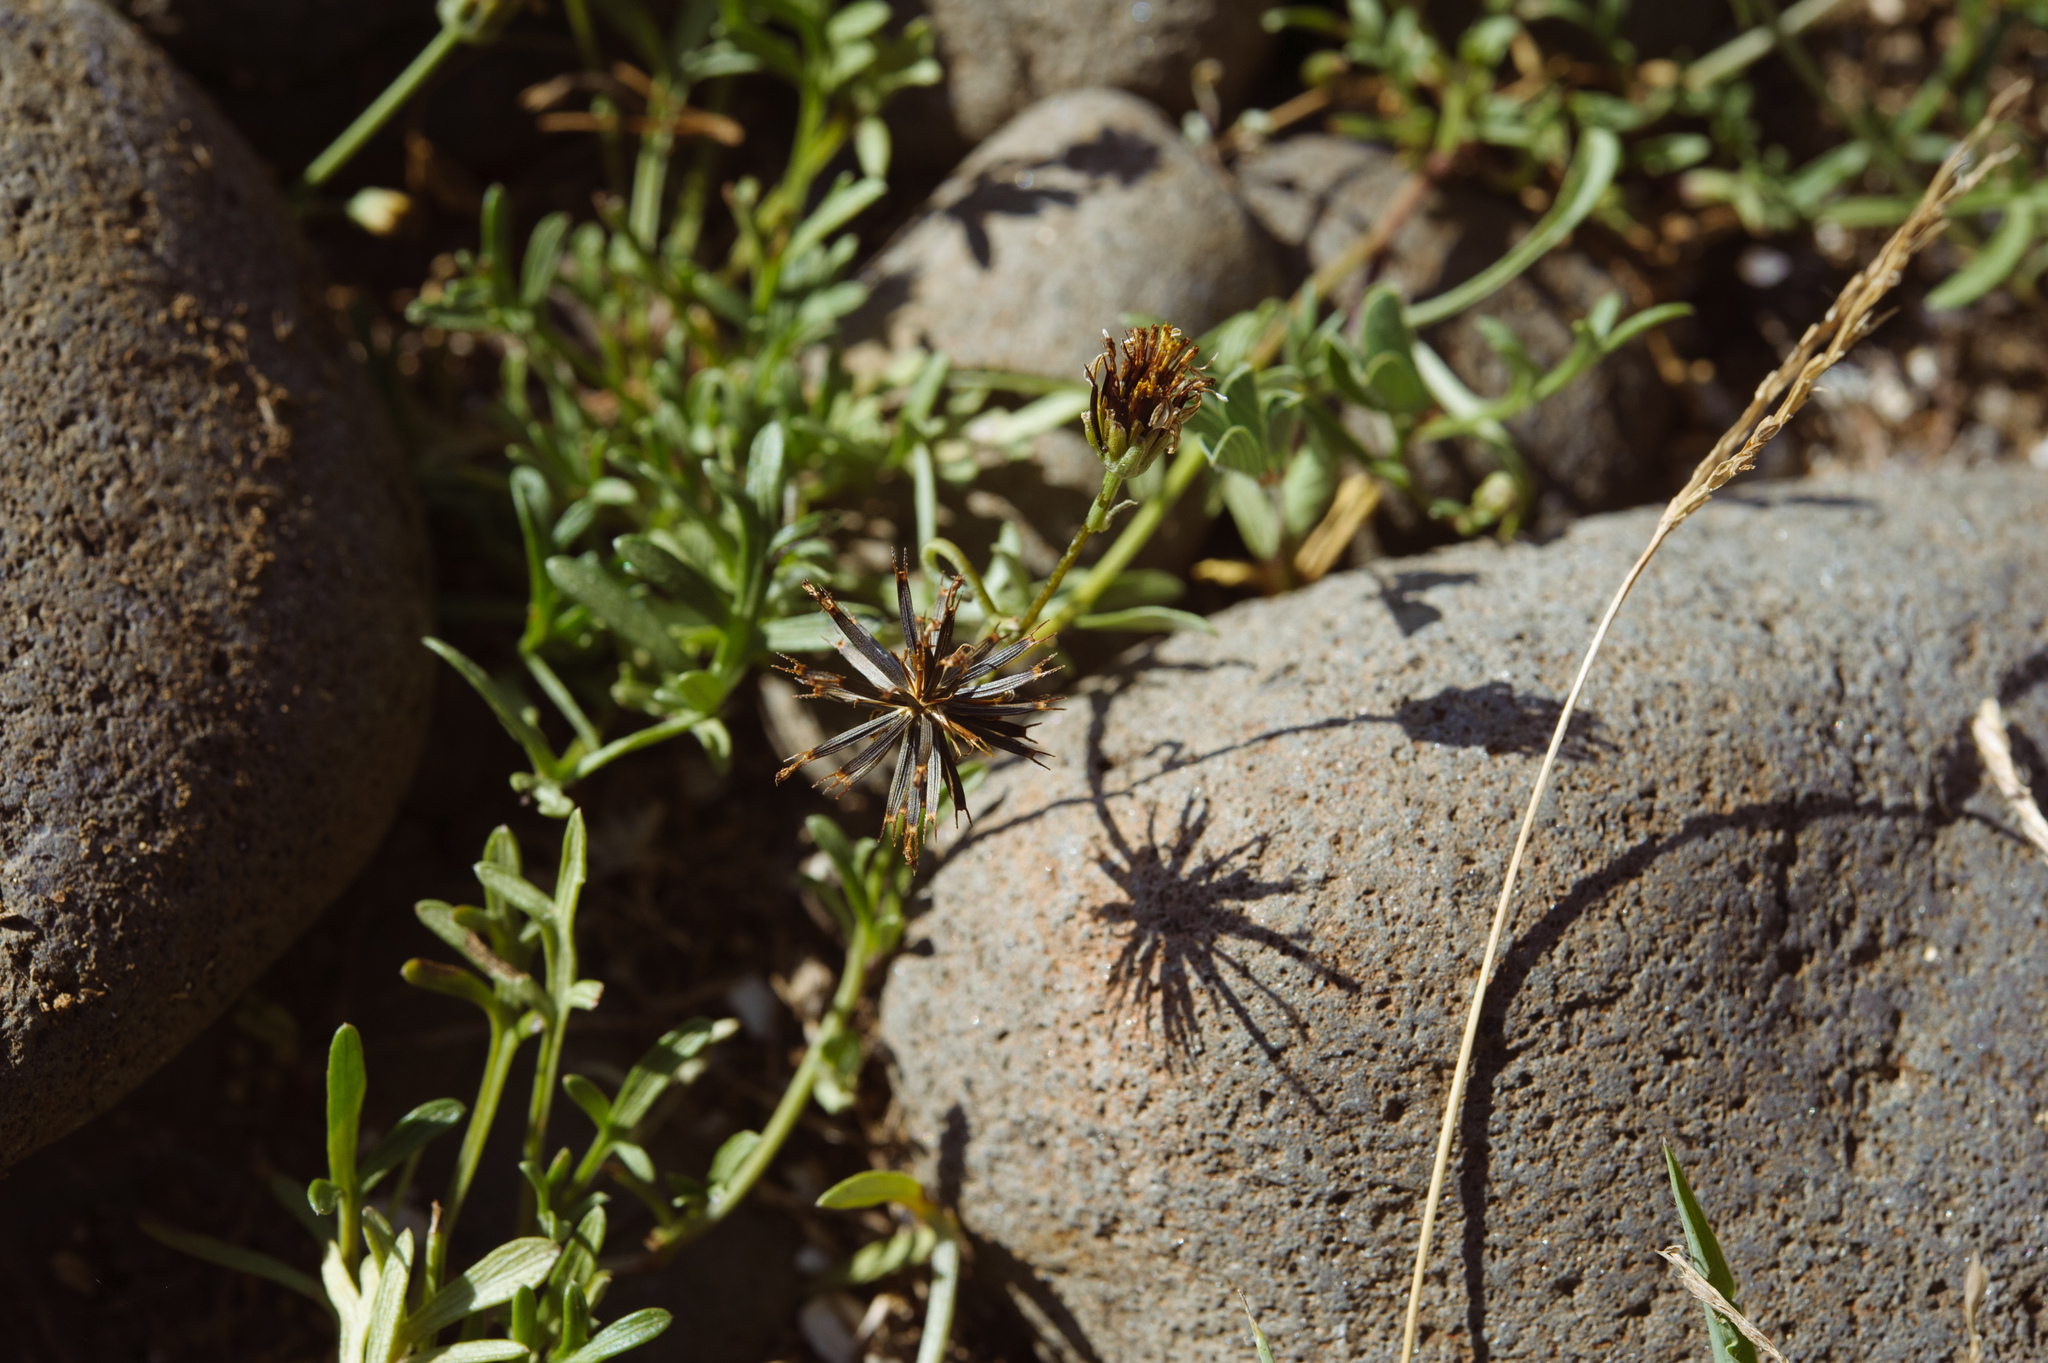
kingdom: Plantae
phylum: Tracheophyta
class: Magnoliopsida
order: Asterales
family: Asteraceae
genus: Glossocardia
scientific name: Glossocardia bidens
